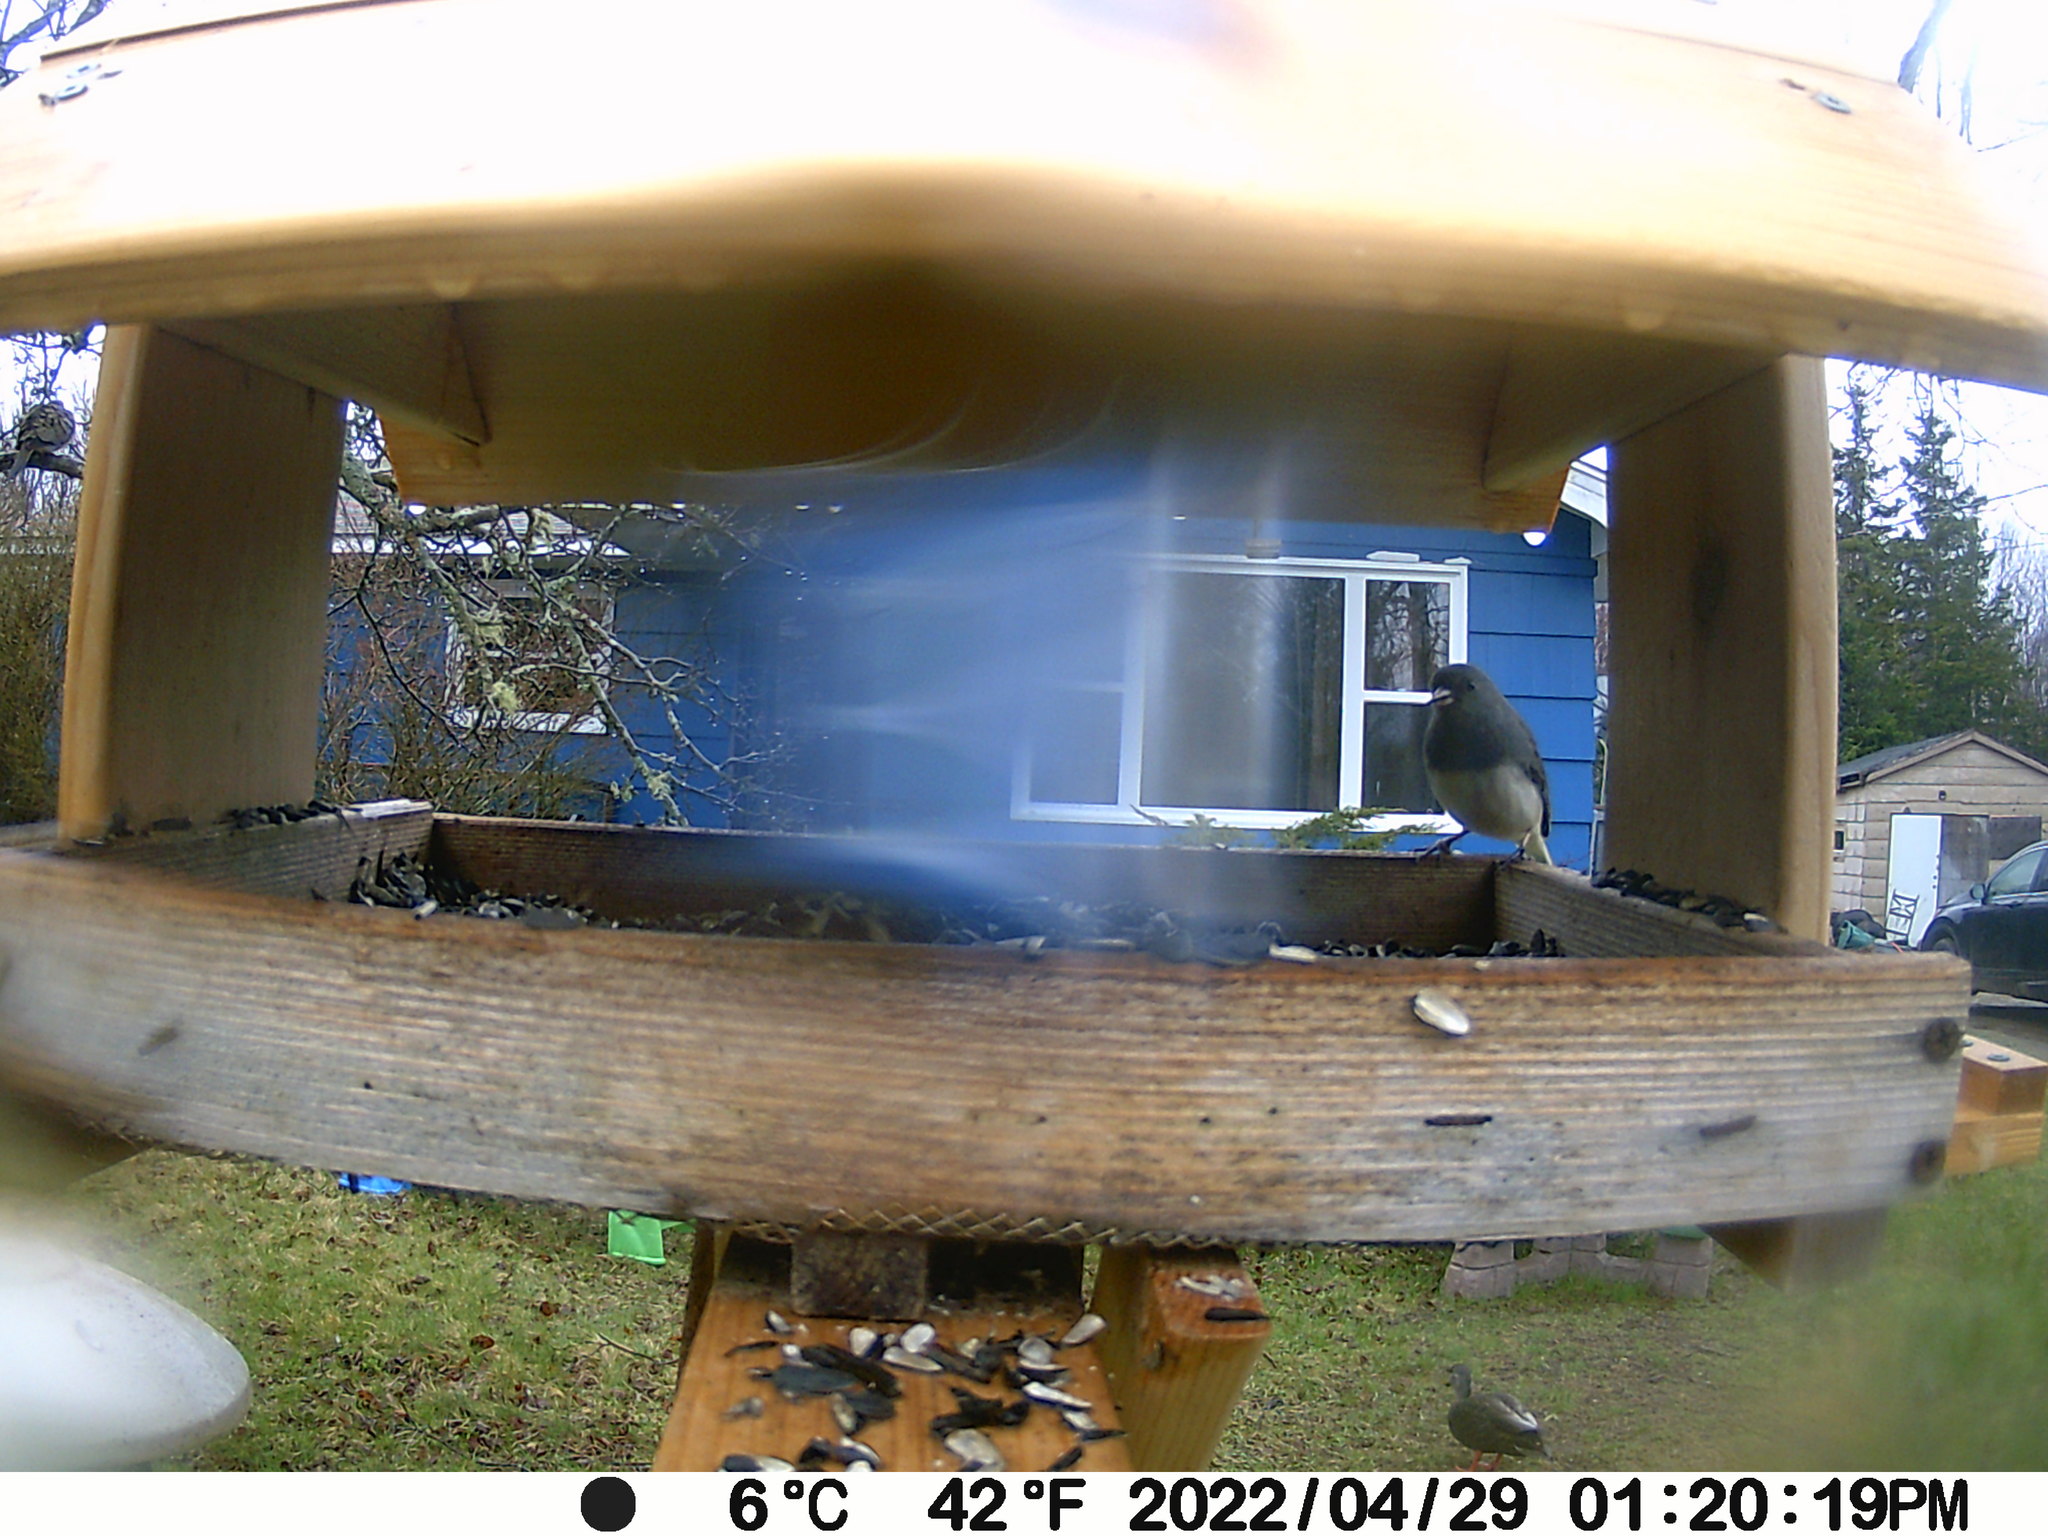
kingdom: Animalia
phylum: Chordata
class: Aves
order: Anseriformes
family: Anatidae
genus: Anas
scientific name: Anas rubripes
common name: American black duck
